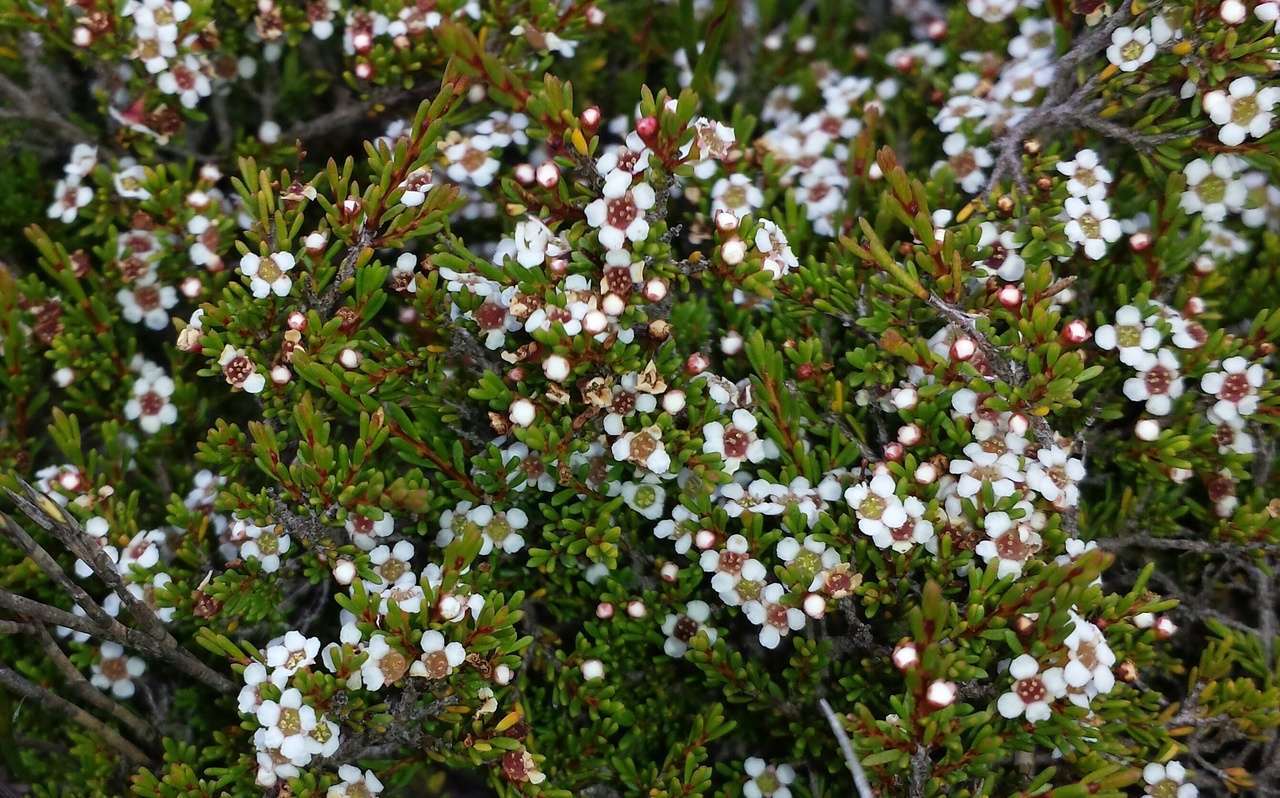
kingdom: Plantae
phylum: Tracheophyta
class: Magnoliopsida
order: Myrtales
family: Myrtaceae
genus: Baeckea
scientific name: Baeckea gunniana
